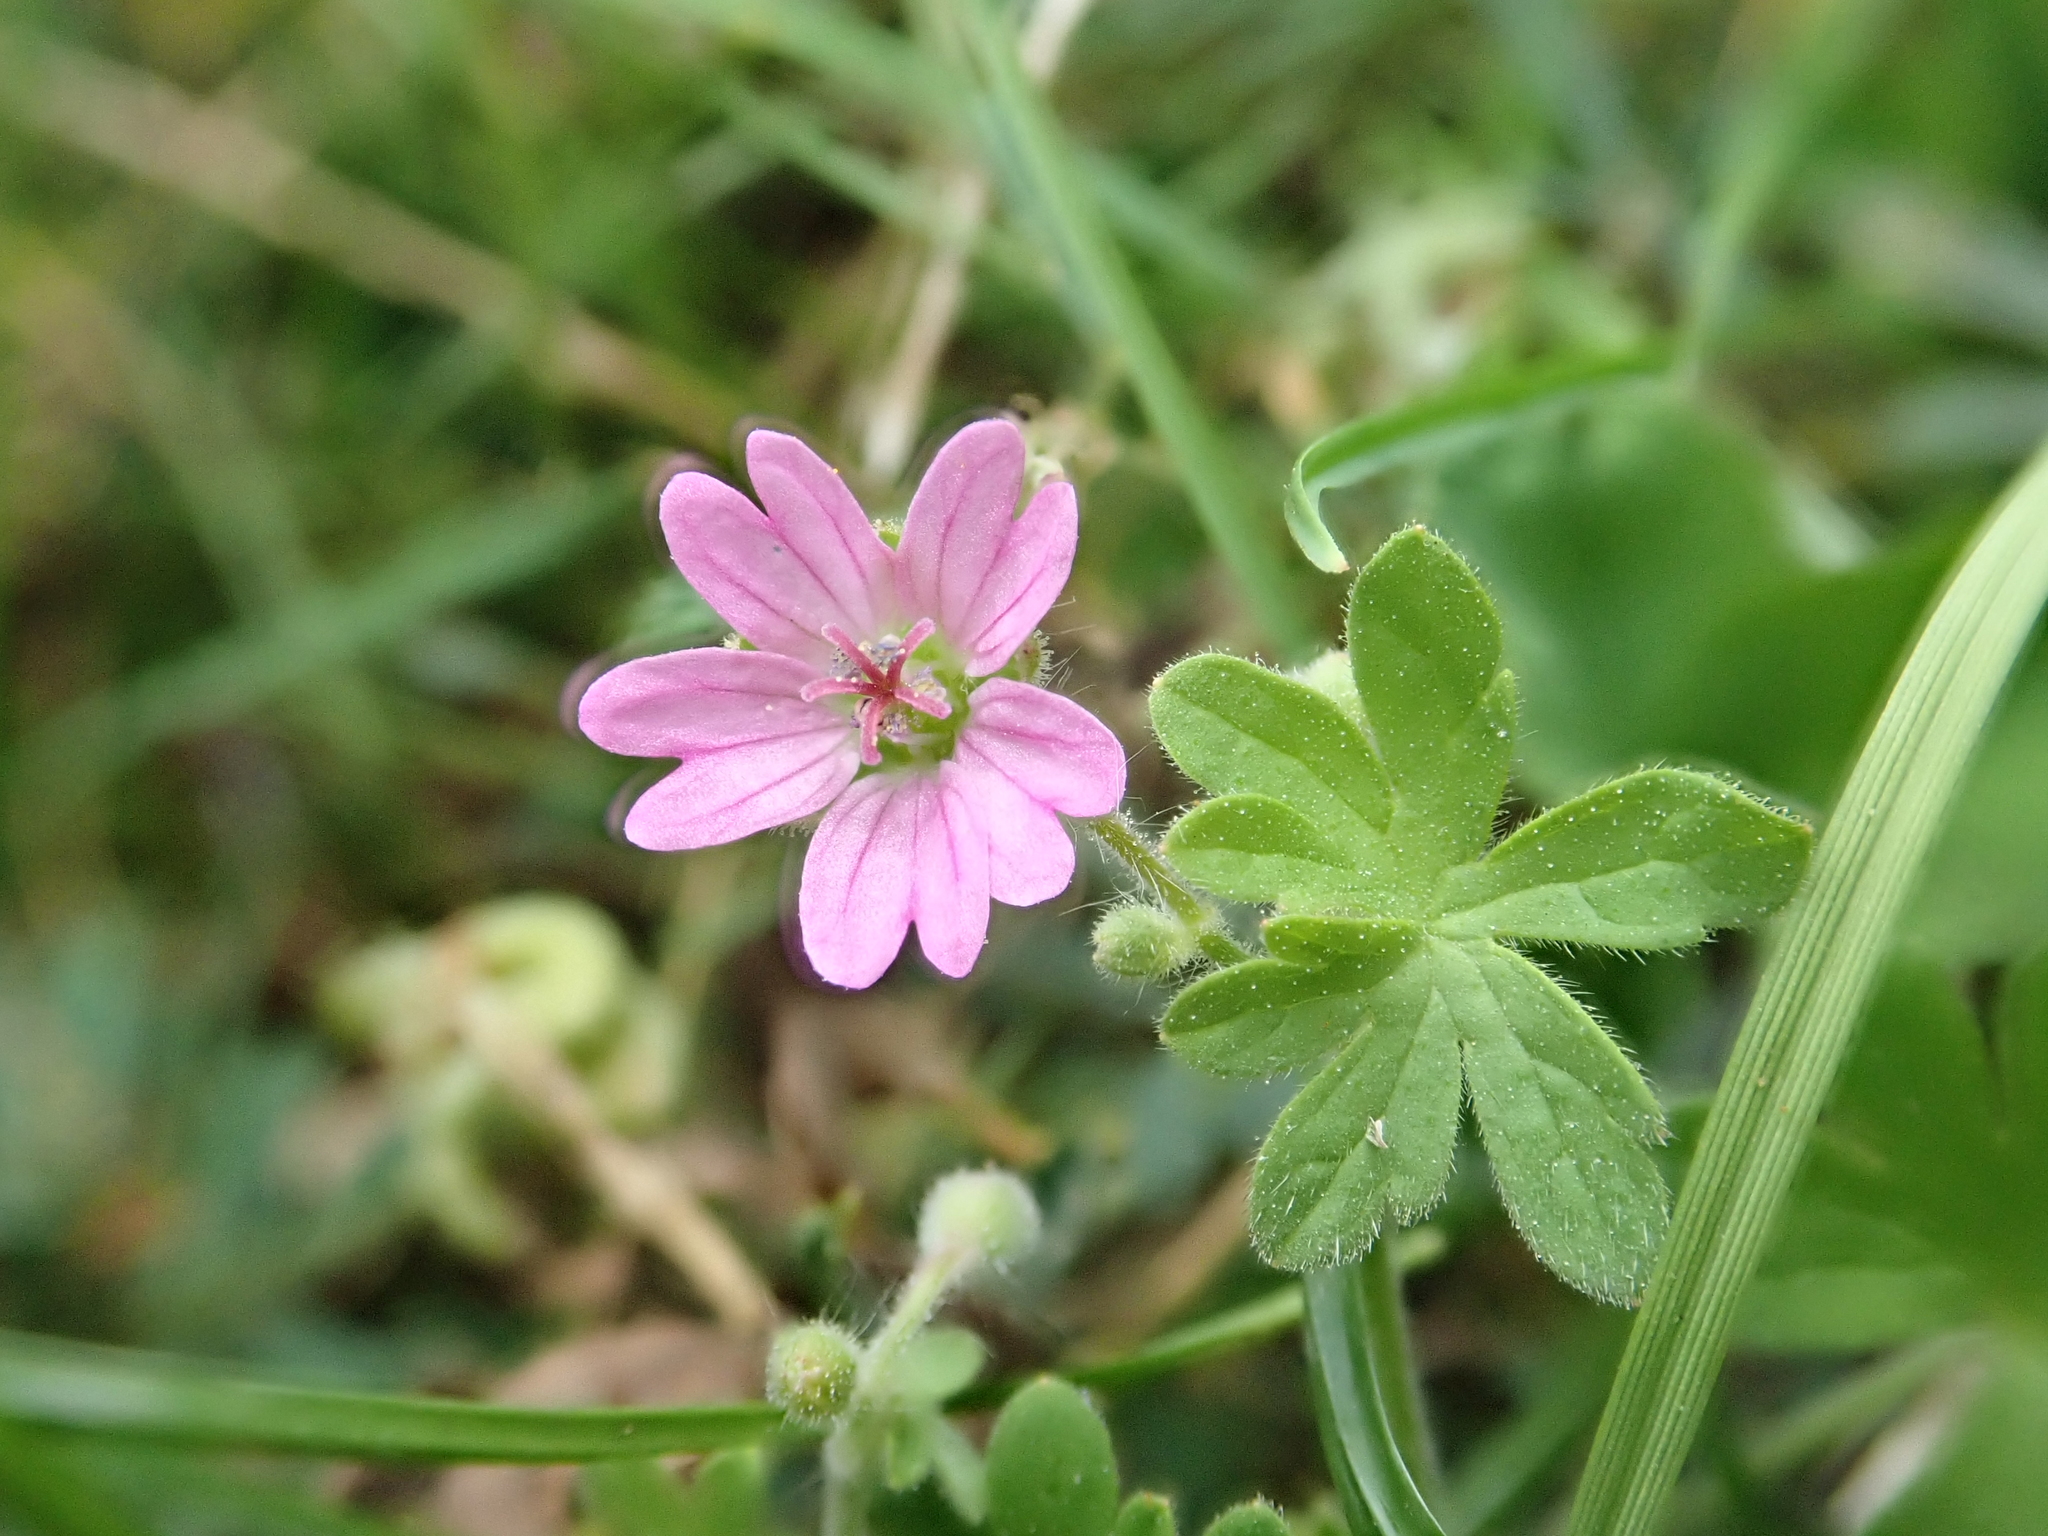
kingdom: Plantae
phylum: Tracheophyta
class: Magnoliopsida
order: Geraniales
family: Geraniaceae
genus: Geranium
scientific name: Geranium molle
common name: Dove's-foot crane's-bill
